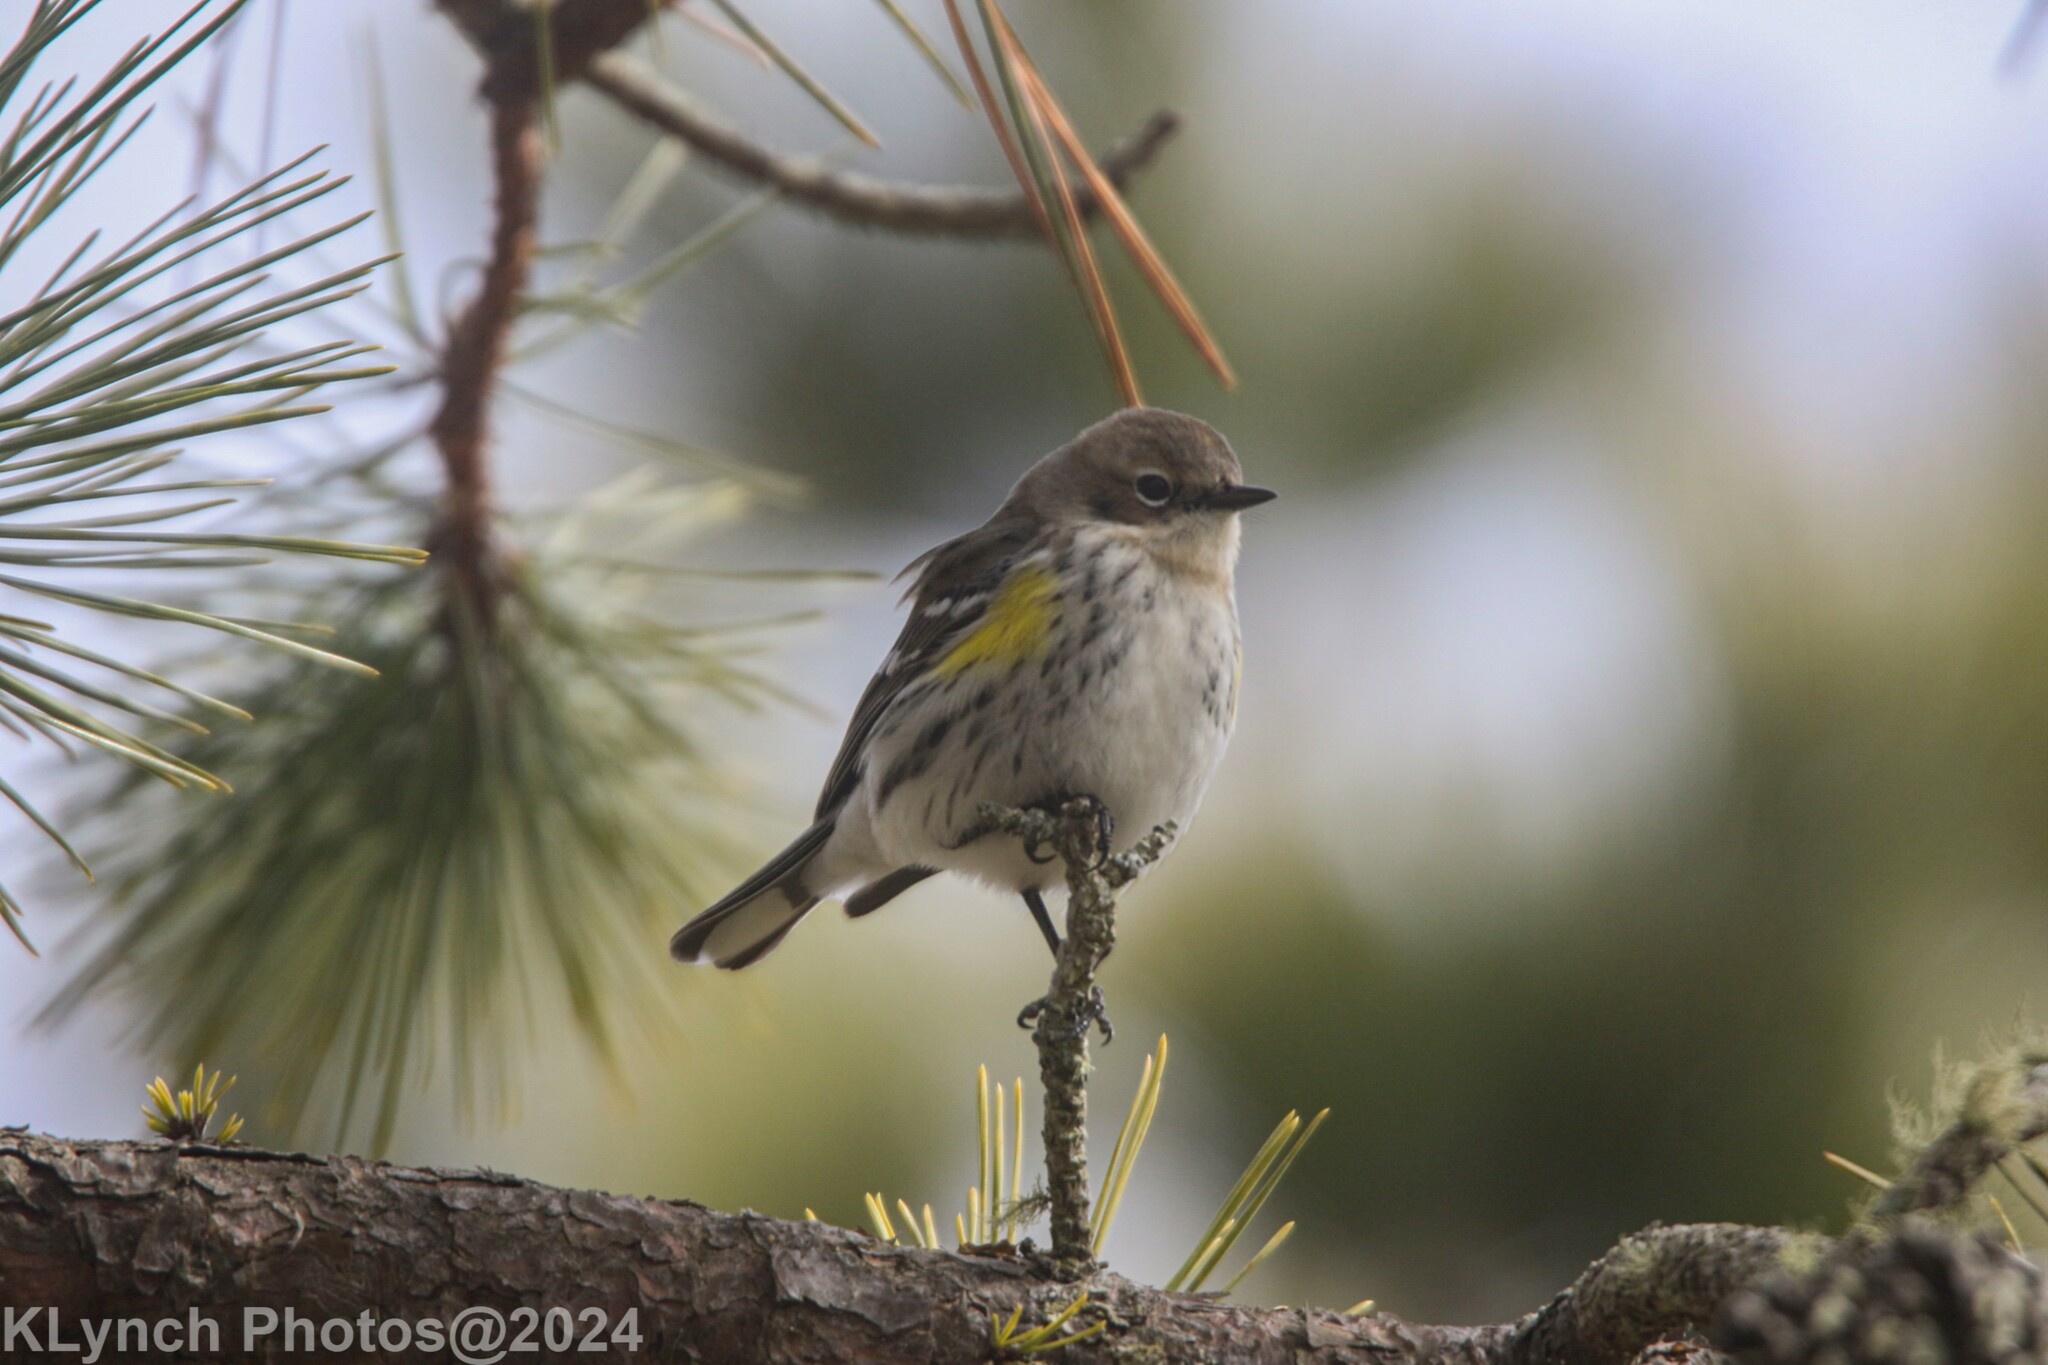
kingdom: Animalia
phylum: Chordata
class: Aves
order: Passeriformes
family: Parulidae
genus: Setophaga
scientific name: Setophaga coronata
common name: Myrtle warbler
